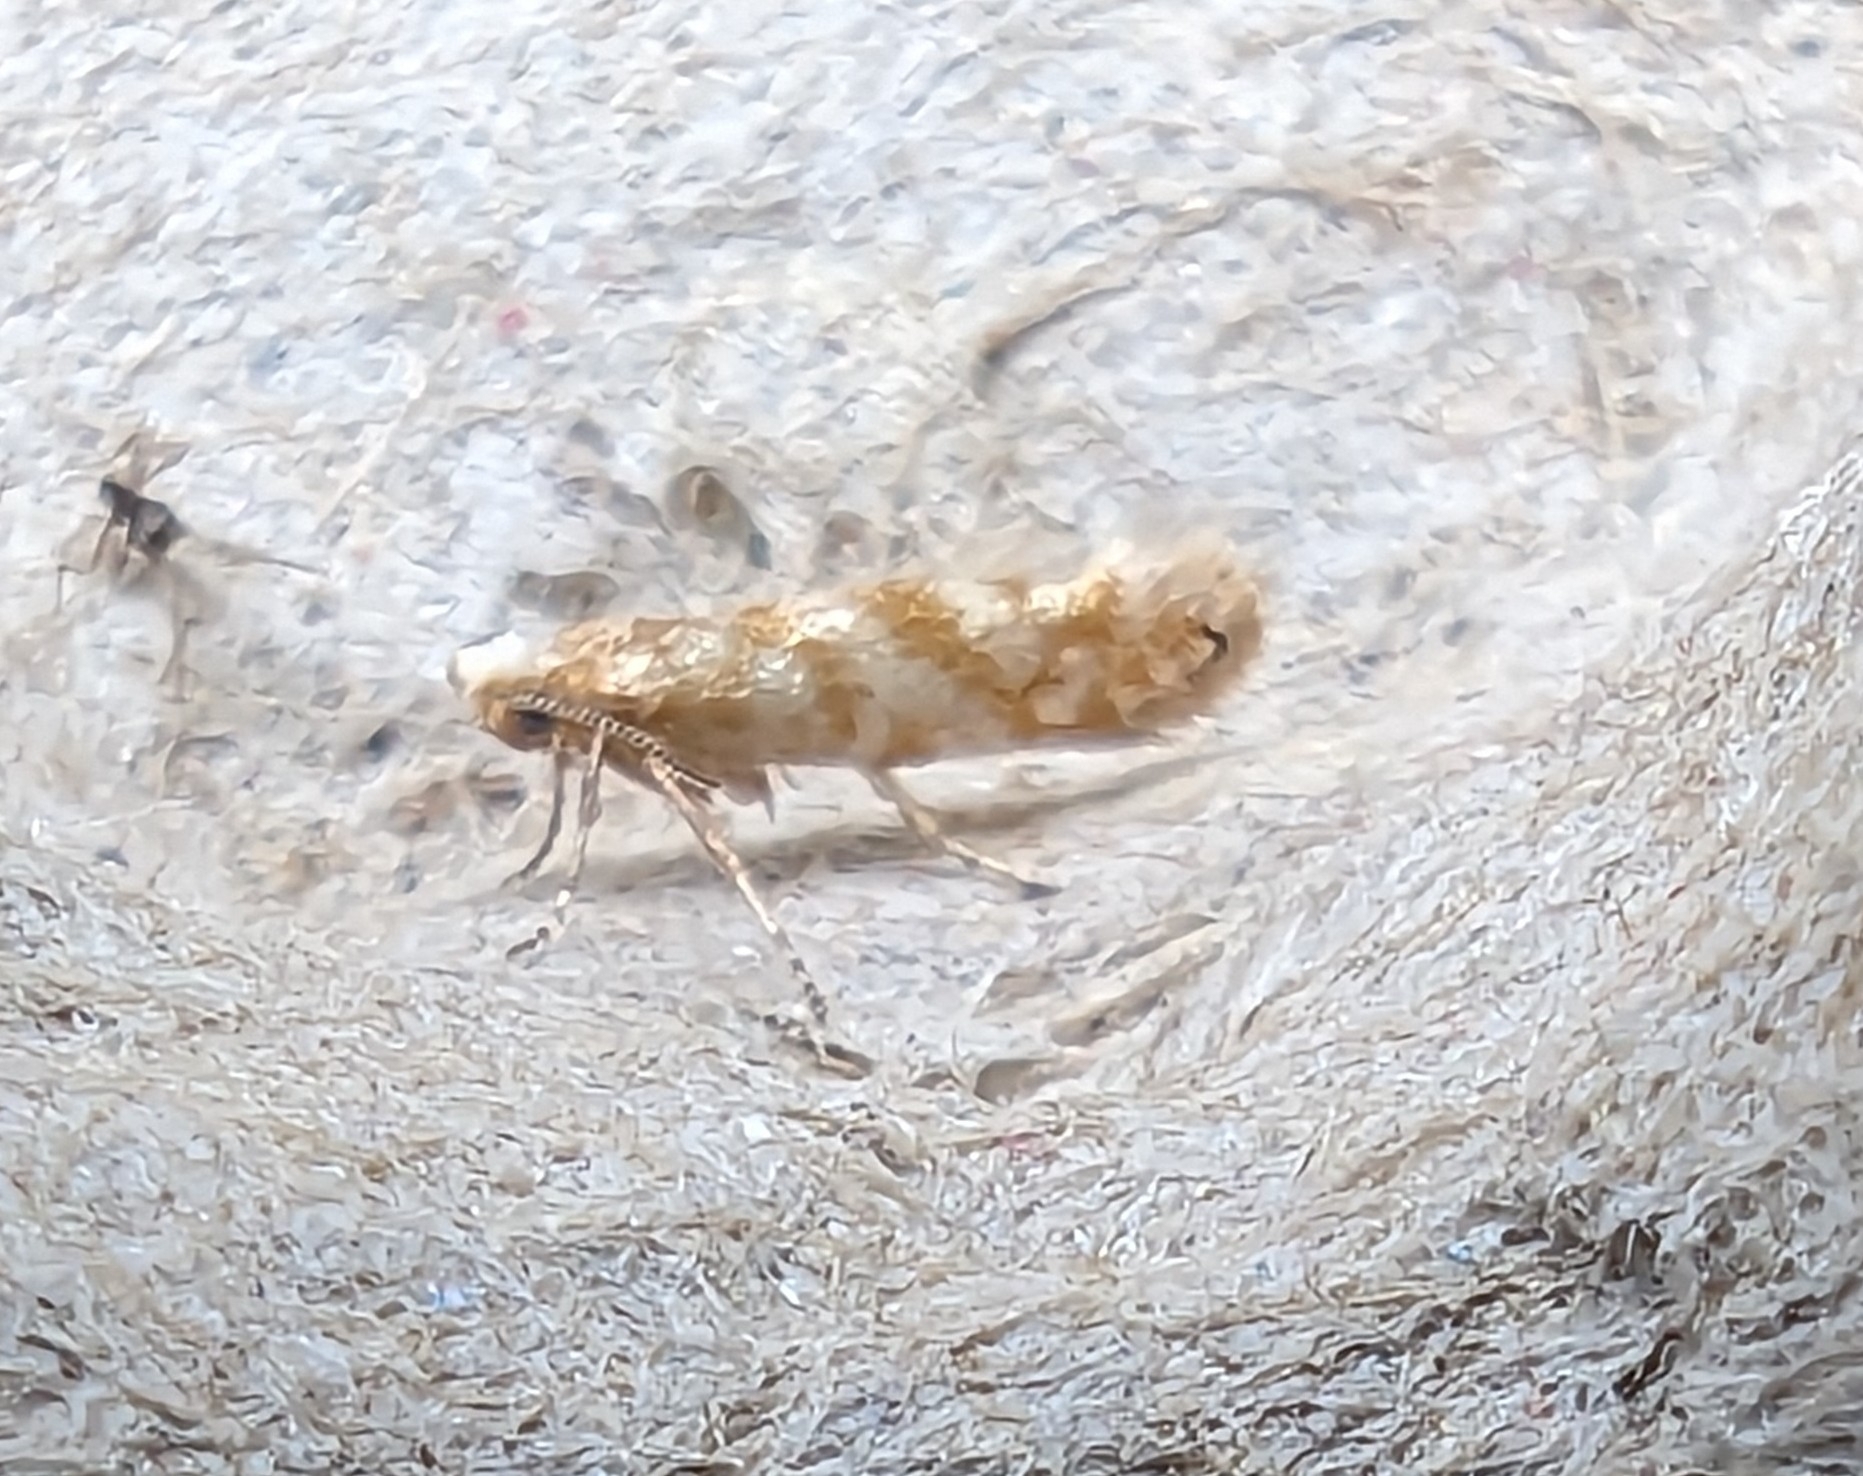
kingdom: Animalia
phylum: Arthropoda
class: Insecta
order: Lepidoptera
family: Argyresthiidae
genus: Argyresthia
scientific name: Argyresthia cupressella
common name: Cypress tip moth
